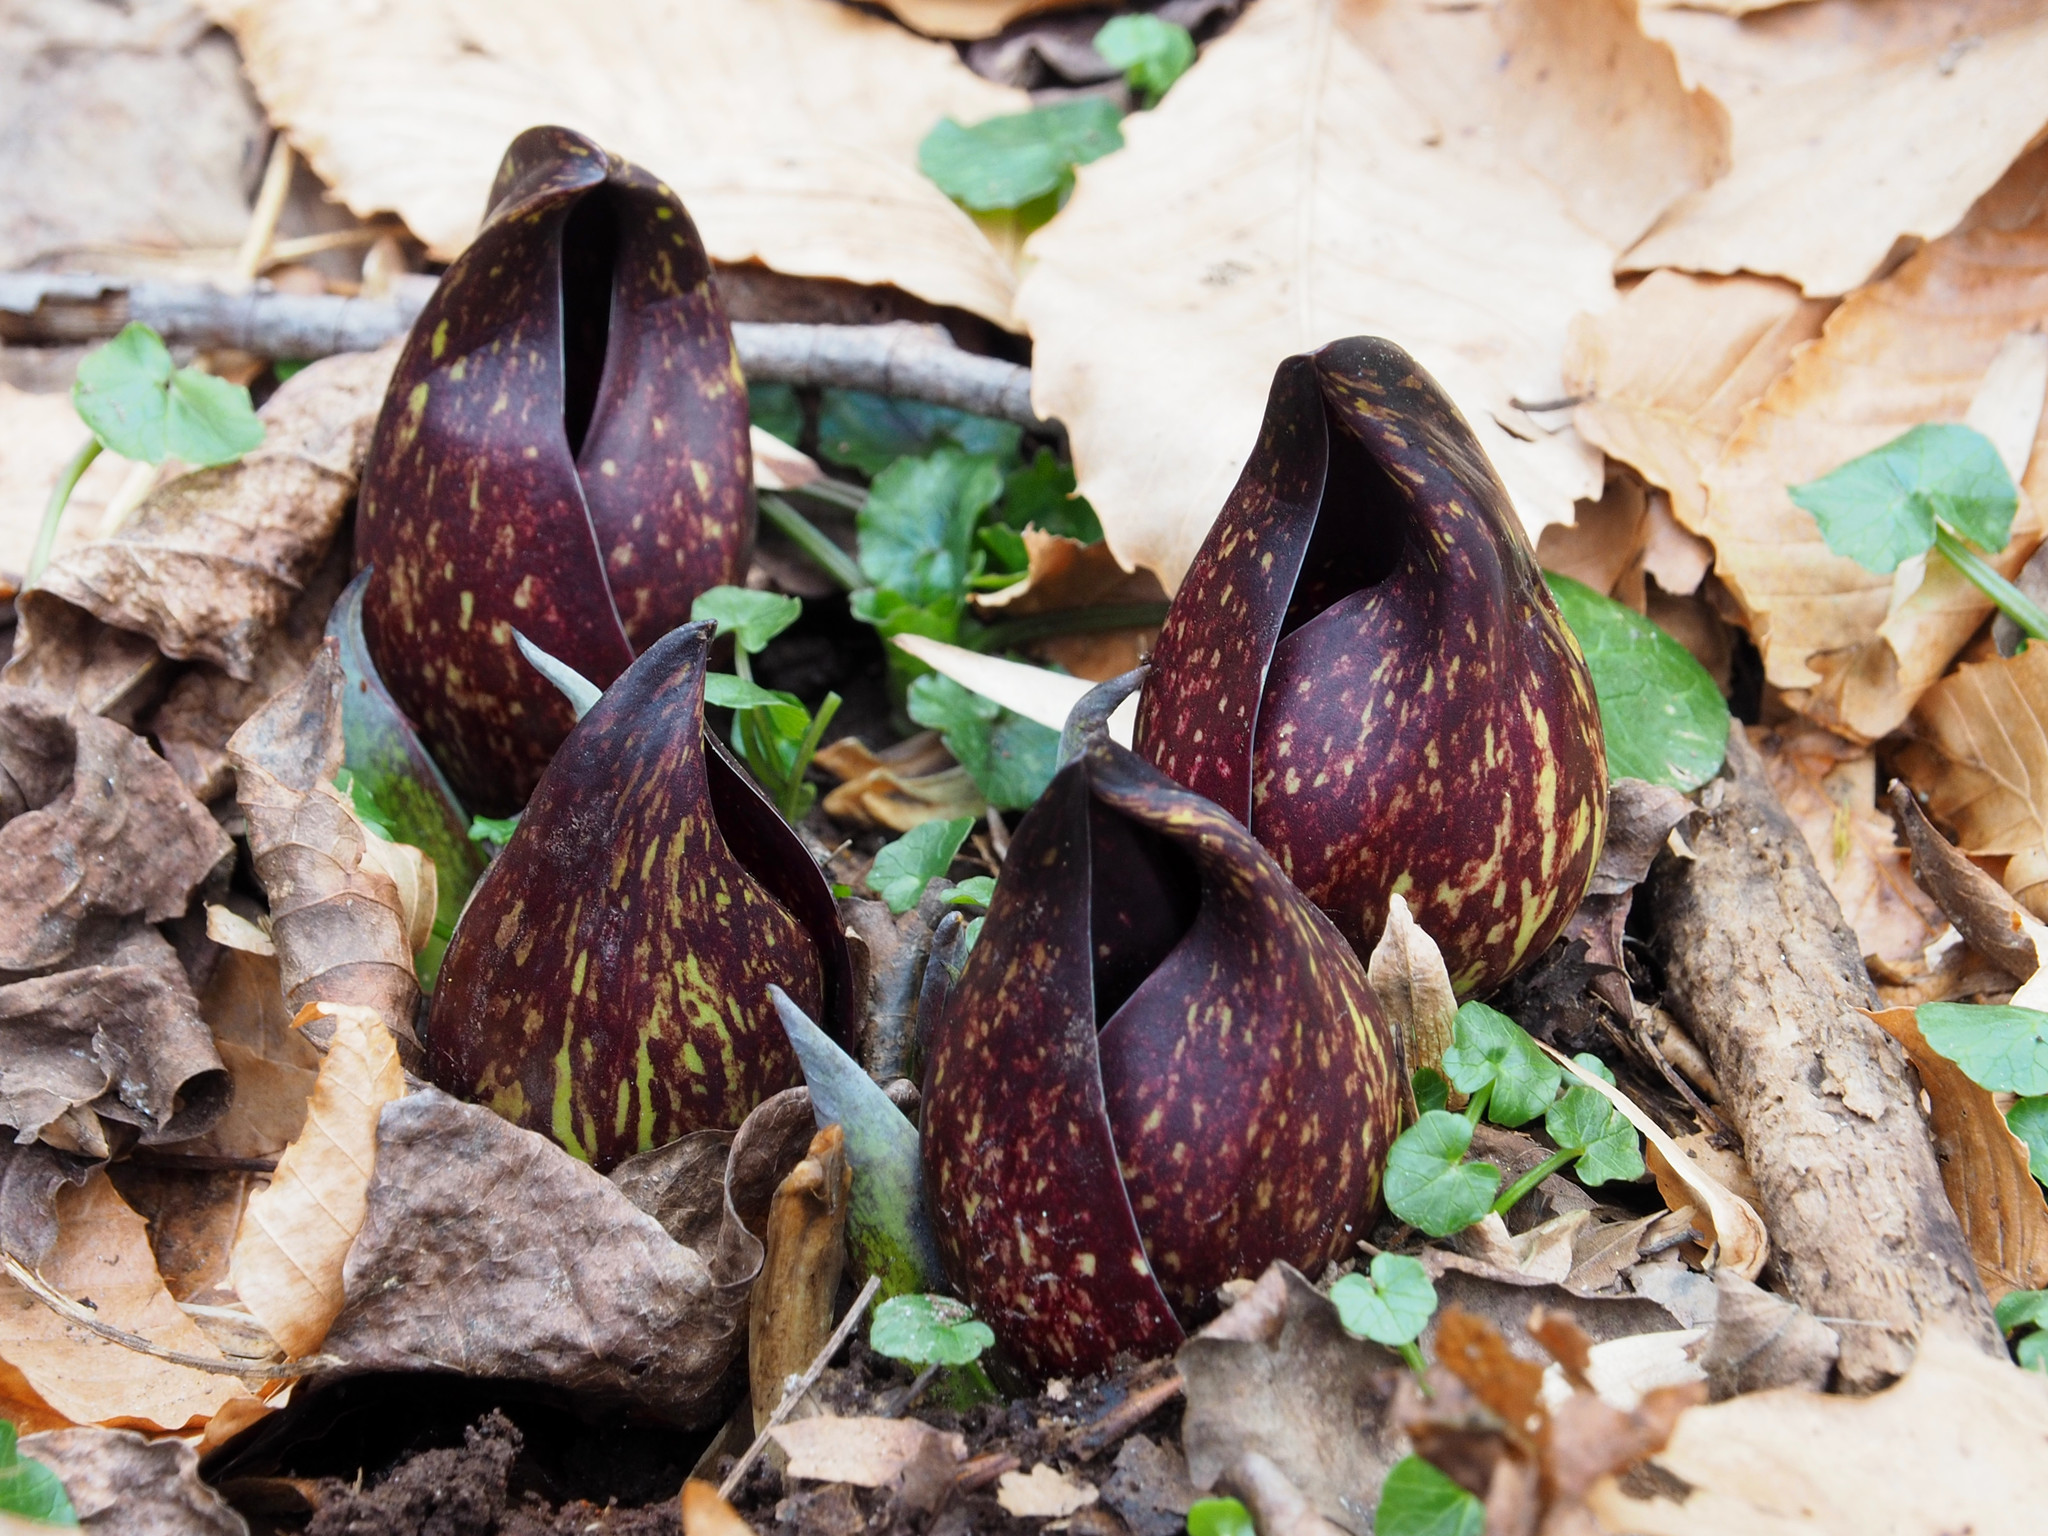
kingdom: Plantae
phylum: Tracheophyta
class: Liliopsida
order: Alismatales
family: Araceae
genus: Symplocarpus
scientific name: Symplocarpus foetidus
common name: Eastern skunk cabbage
